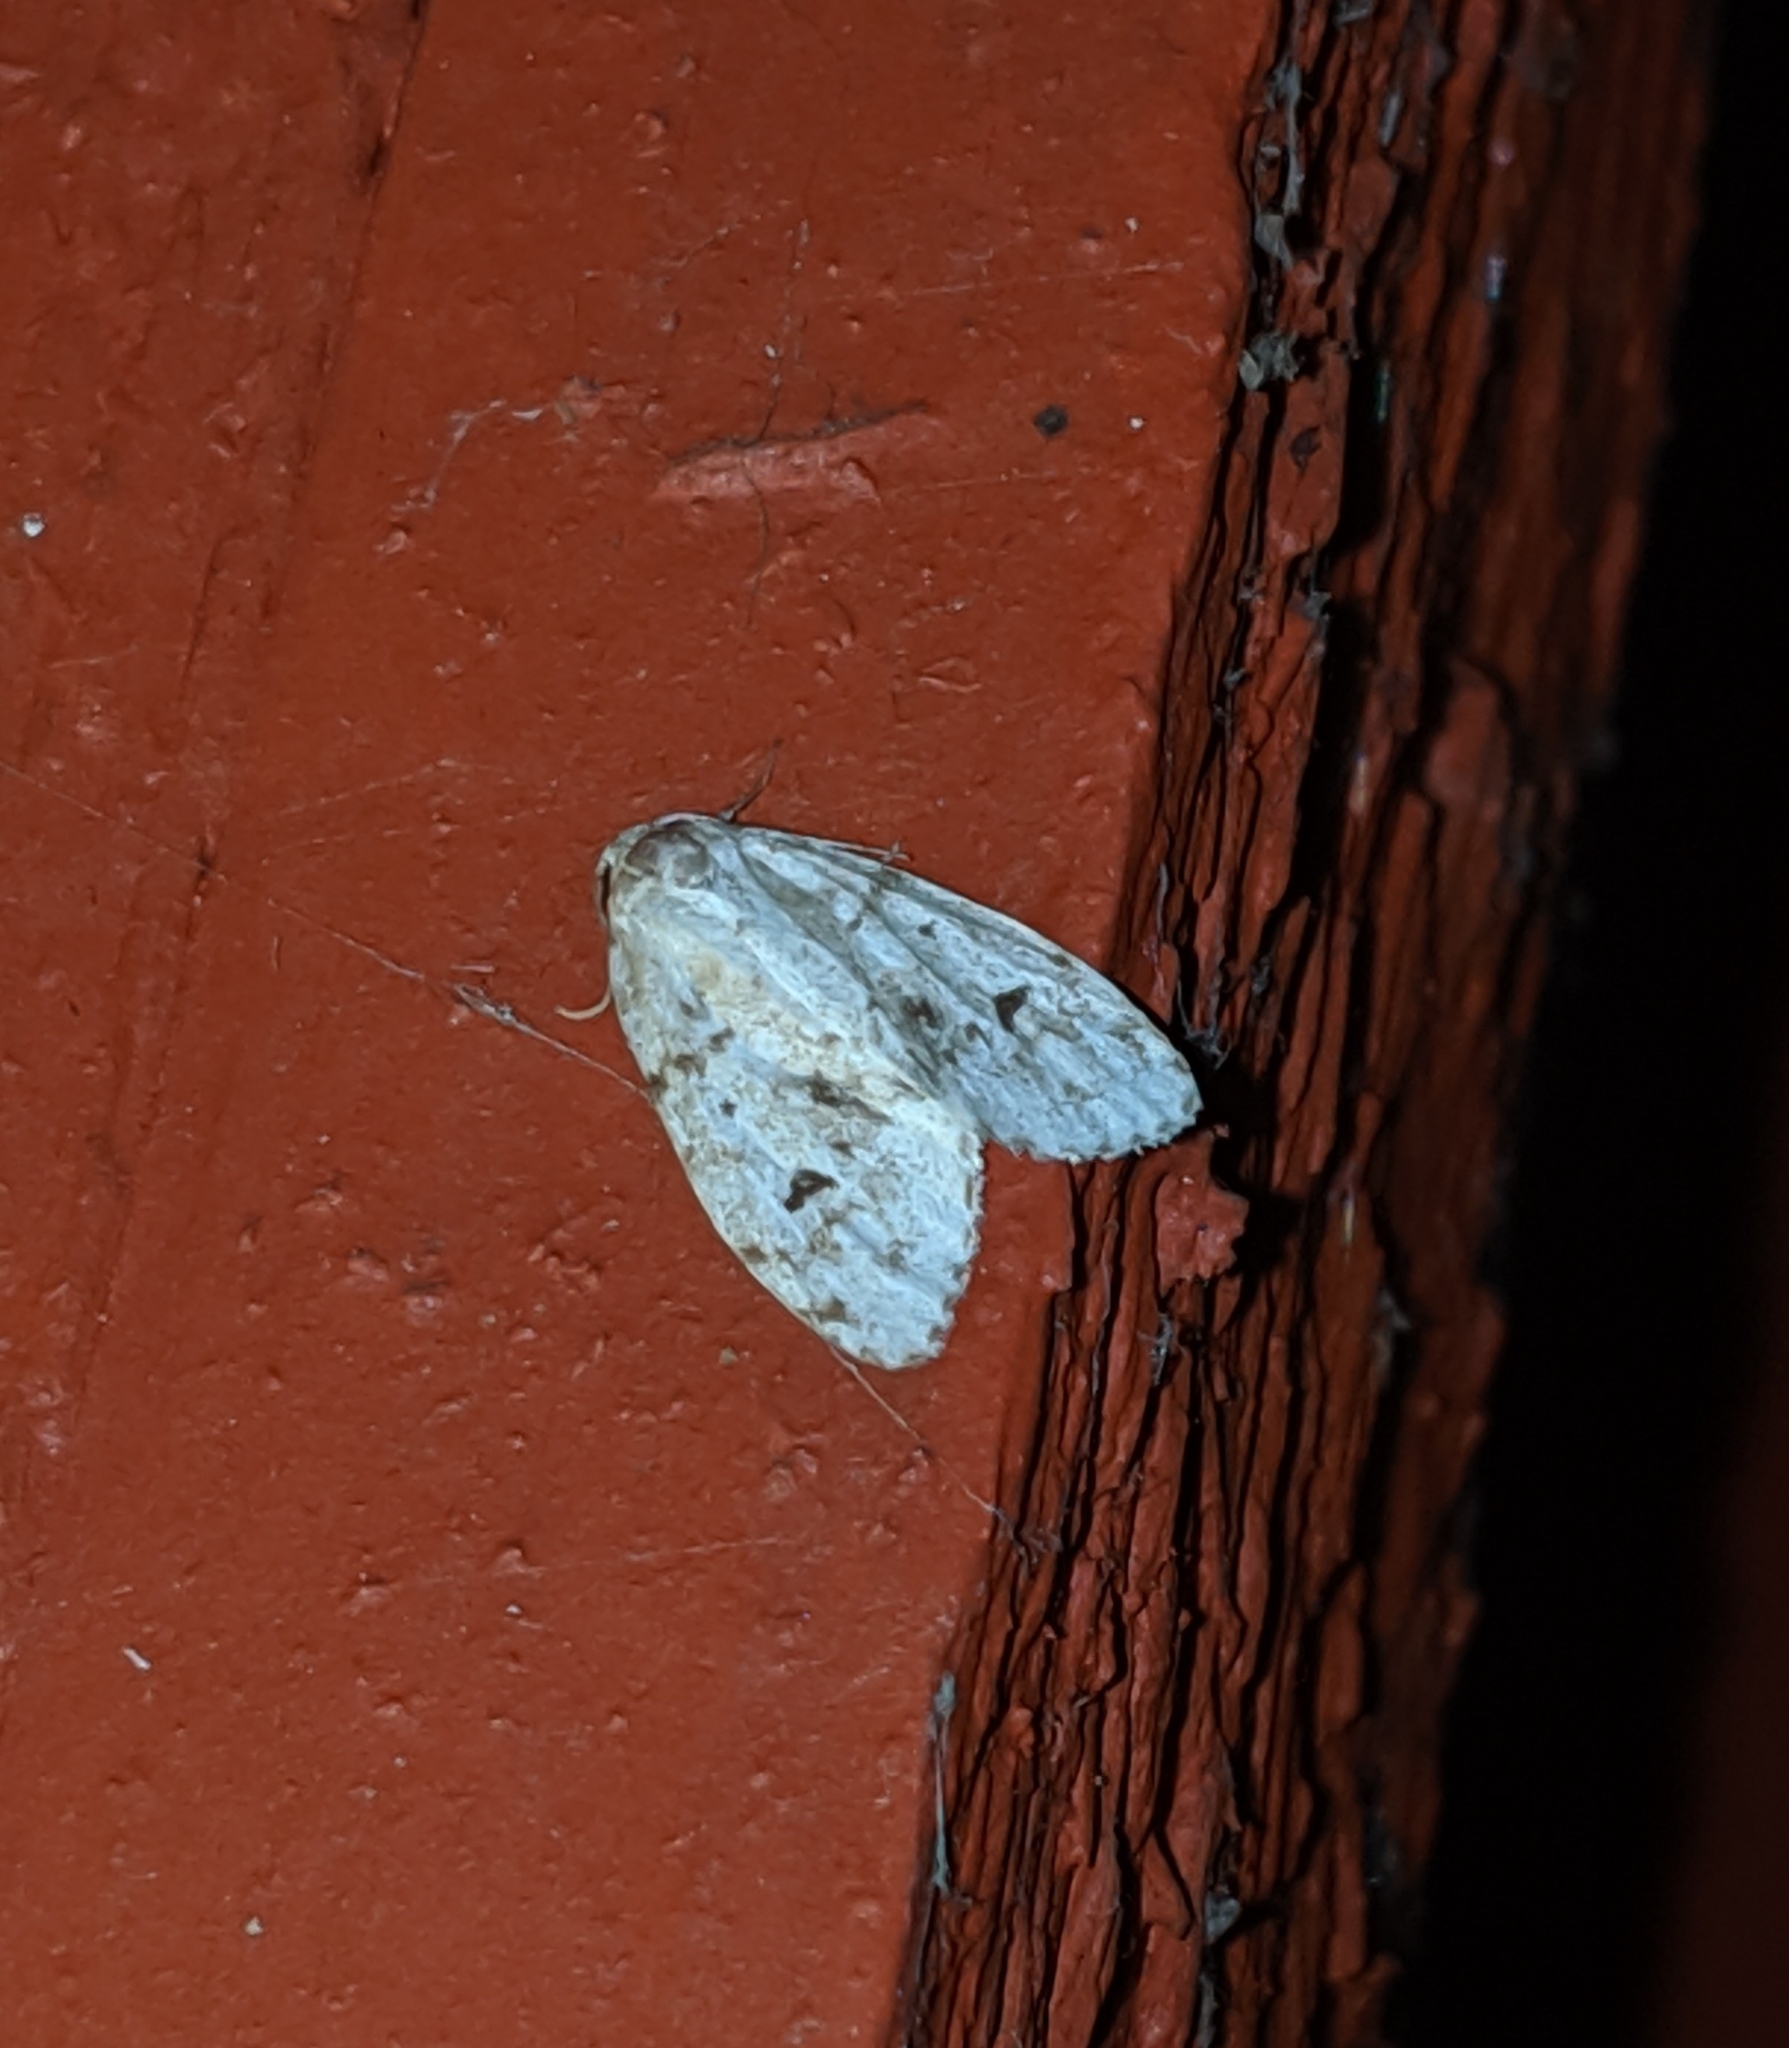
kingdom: Animalia
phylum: Arthropoda
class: Insecta
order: Lepidoptera
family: Erebidae
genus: Clemensia
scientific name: Clemensia umbrata
